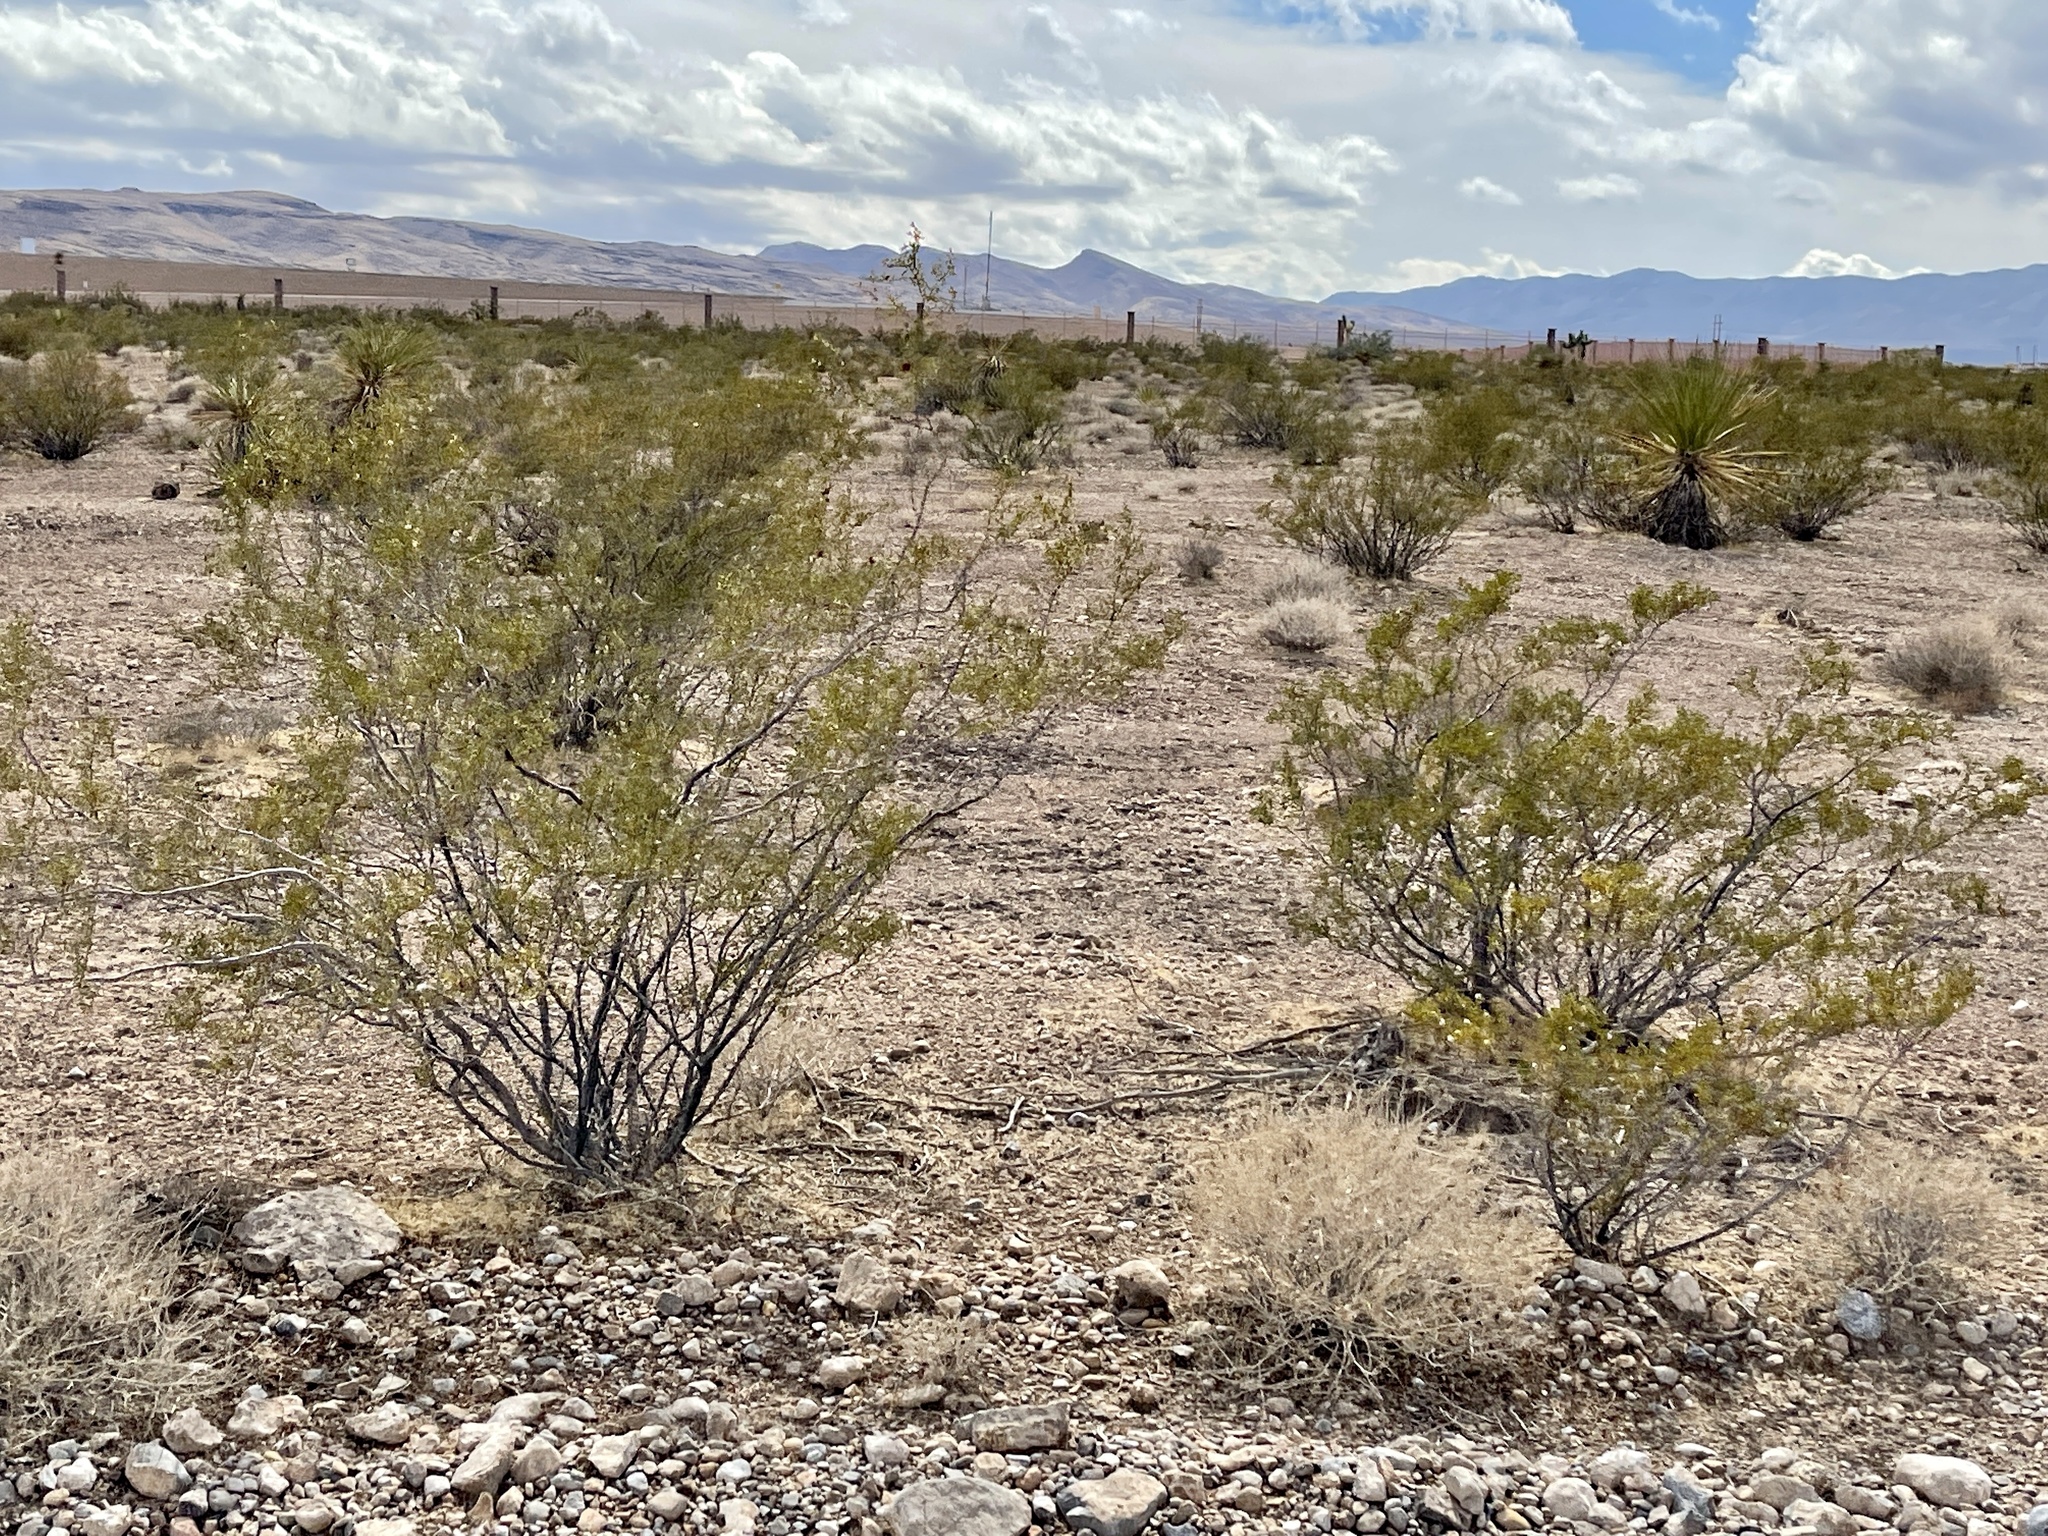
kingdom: Plantae
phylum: Tracheophyta
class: Magnoliopsida
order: Zygophyllales
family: Zygophyllaceae
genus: Larrea
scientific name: Larrea tridentata
